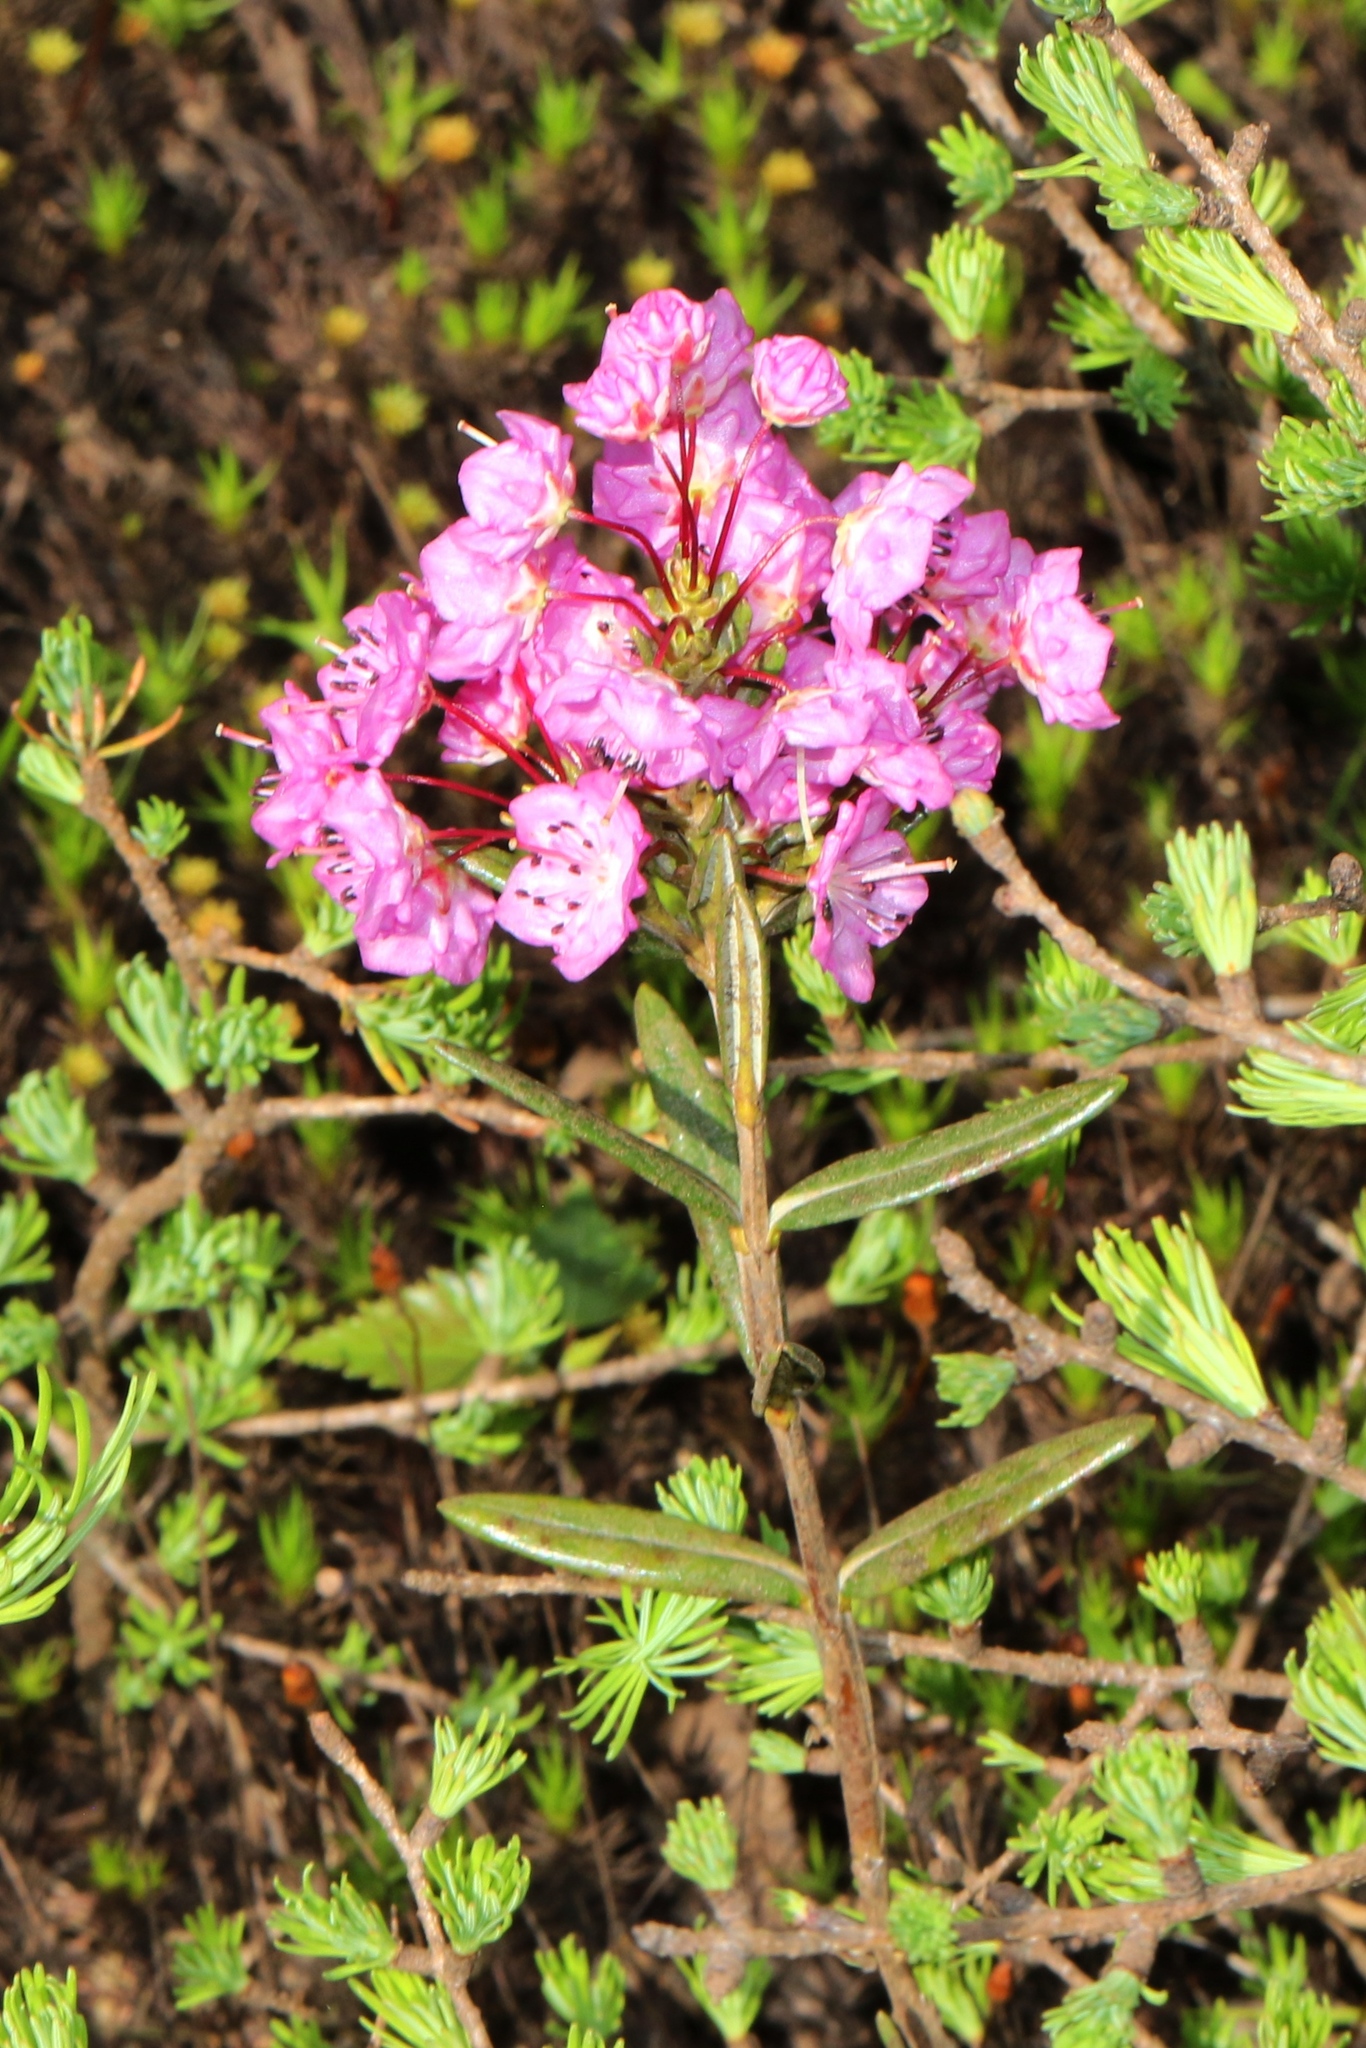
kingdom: Plantae
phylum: Tracheophyta
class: Magnoliopsida
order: Ericales
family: Ericaceae
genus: Kalmia
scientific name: Kalmia polifolia
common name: Bog-laurel
